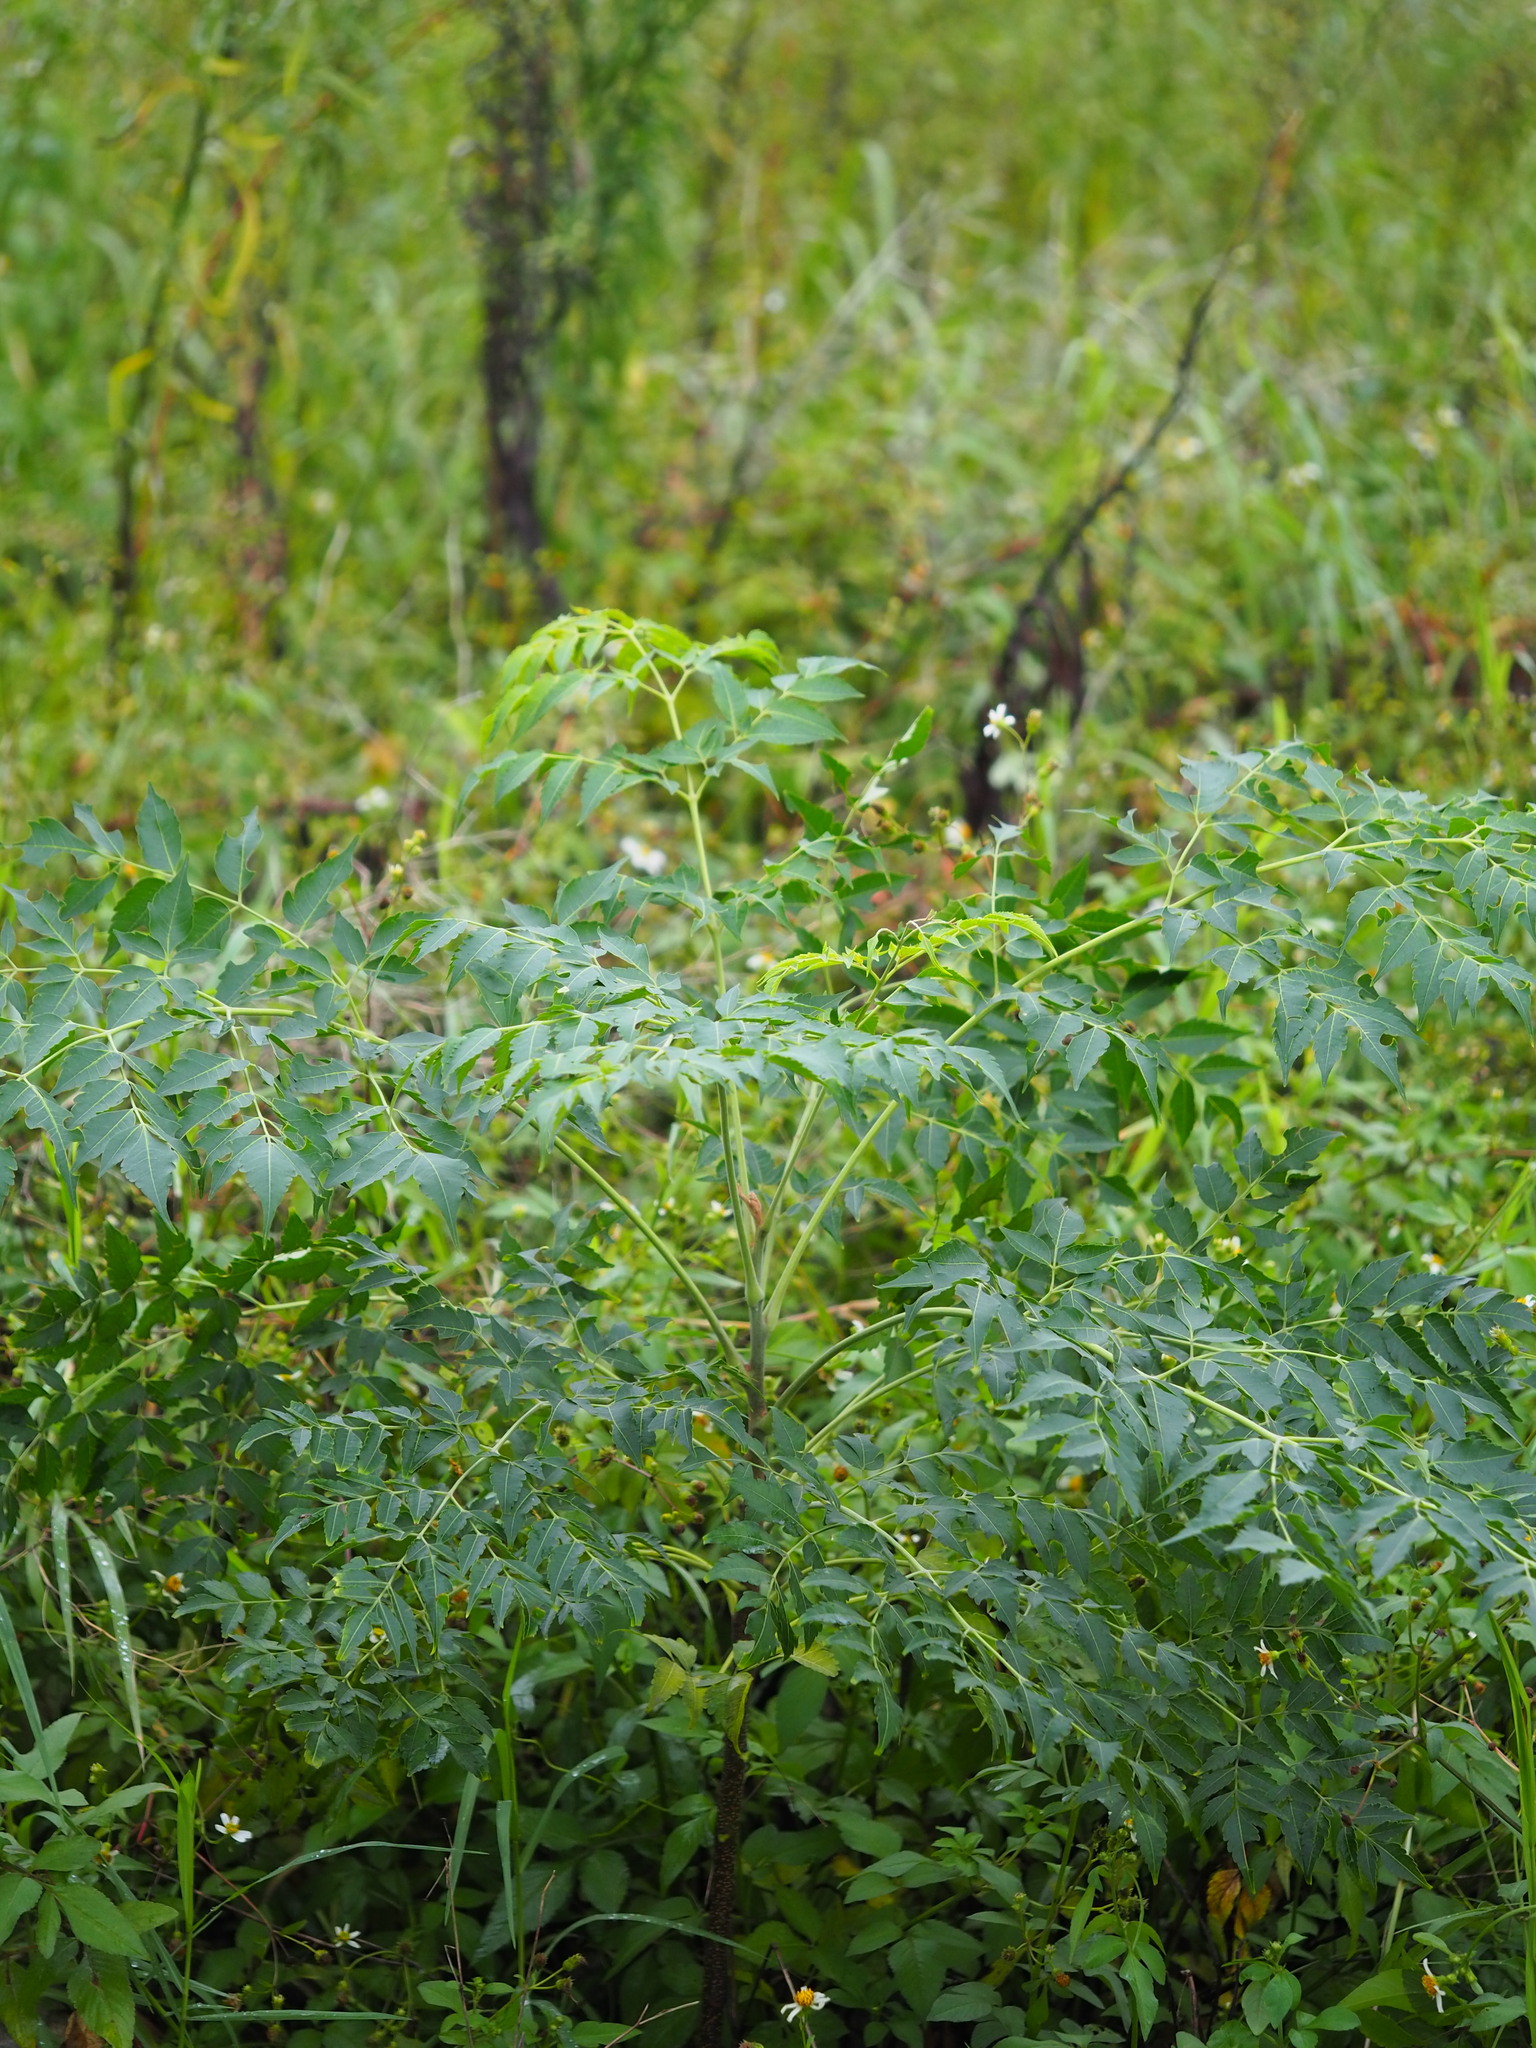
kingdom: Plantae
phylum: Tracheophyta
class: Magnoliopsida
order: Sapindales
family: Meliaceae
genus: Melia
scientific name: Melia azedarach
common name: Chinaberrytree
